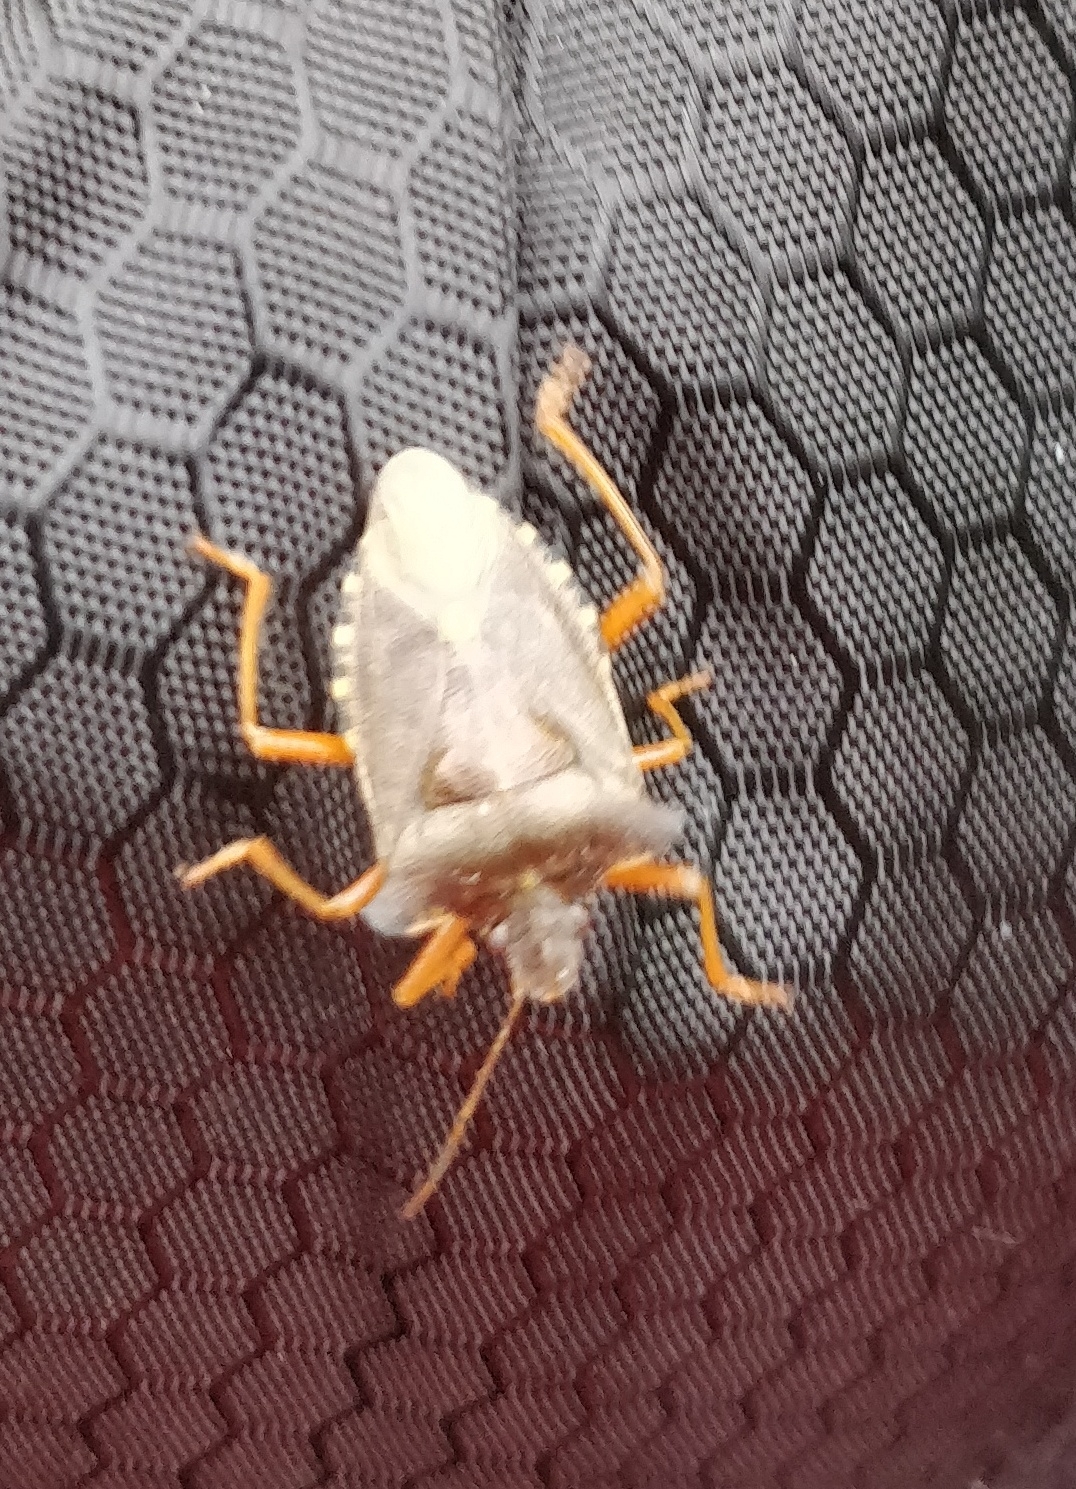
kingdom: Animalia
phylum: Arthropoda
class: Insecta
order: Hemiptera
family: Pentatomidae
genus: Pentatoma
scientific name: Pentatoma rufipes
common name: Forest bug
